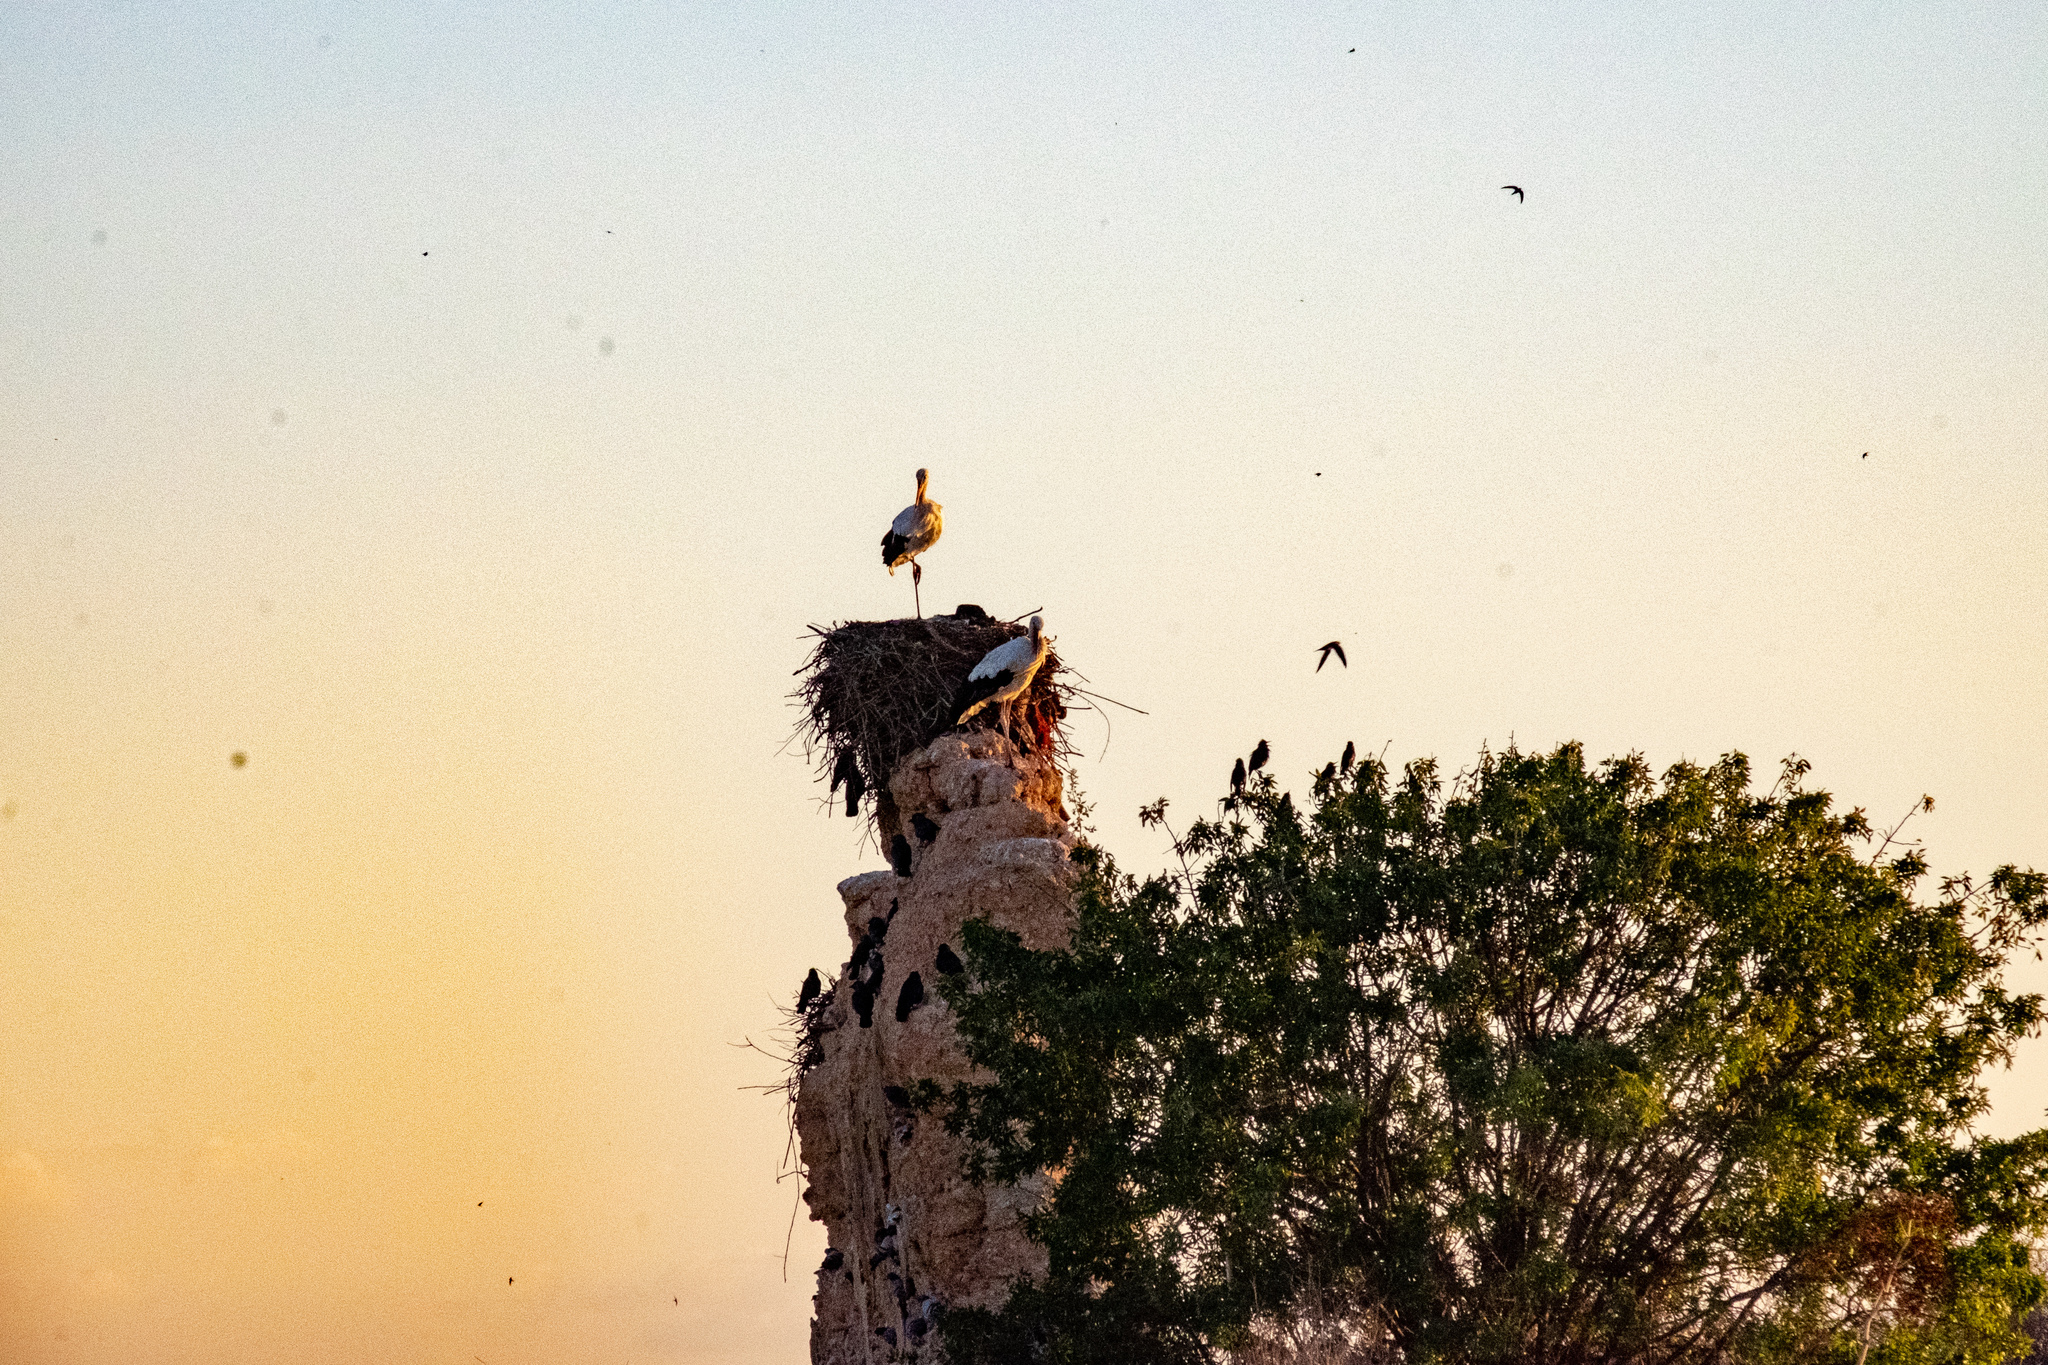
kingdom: Animalia
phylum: Chordata
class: Aves
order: Ciconiiformes
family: Ciconiidae
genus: Ciconia
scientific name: Ciconia ciconia
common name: White stork
